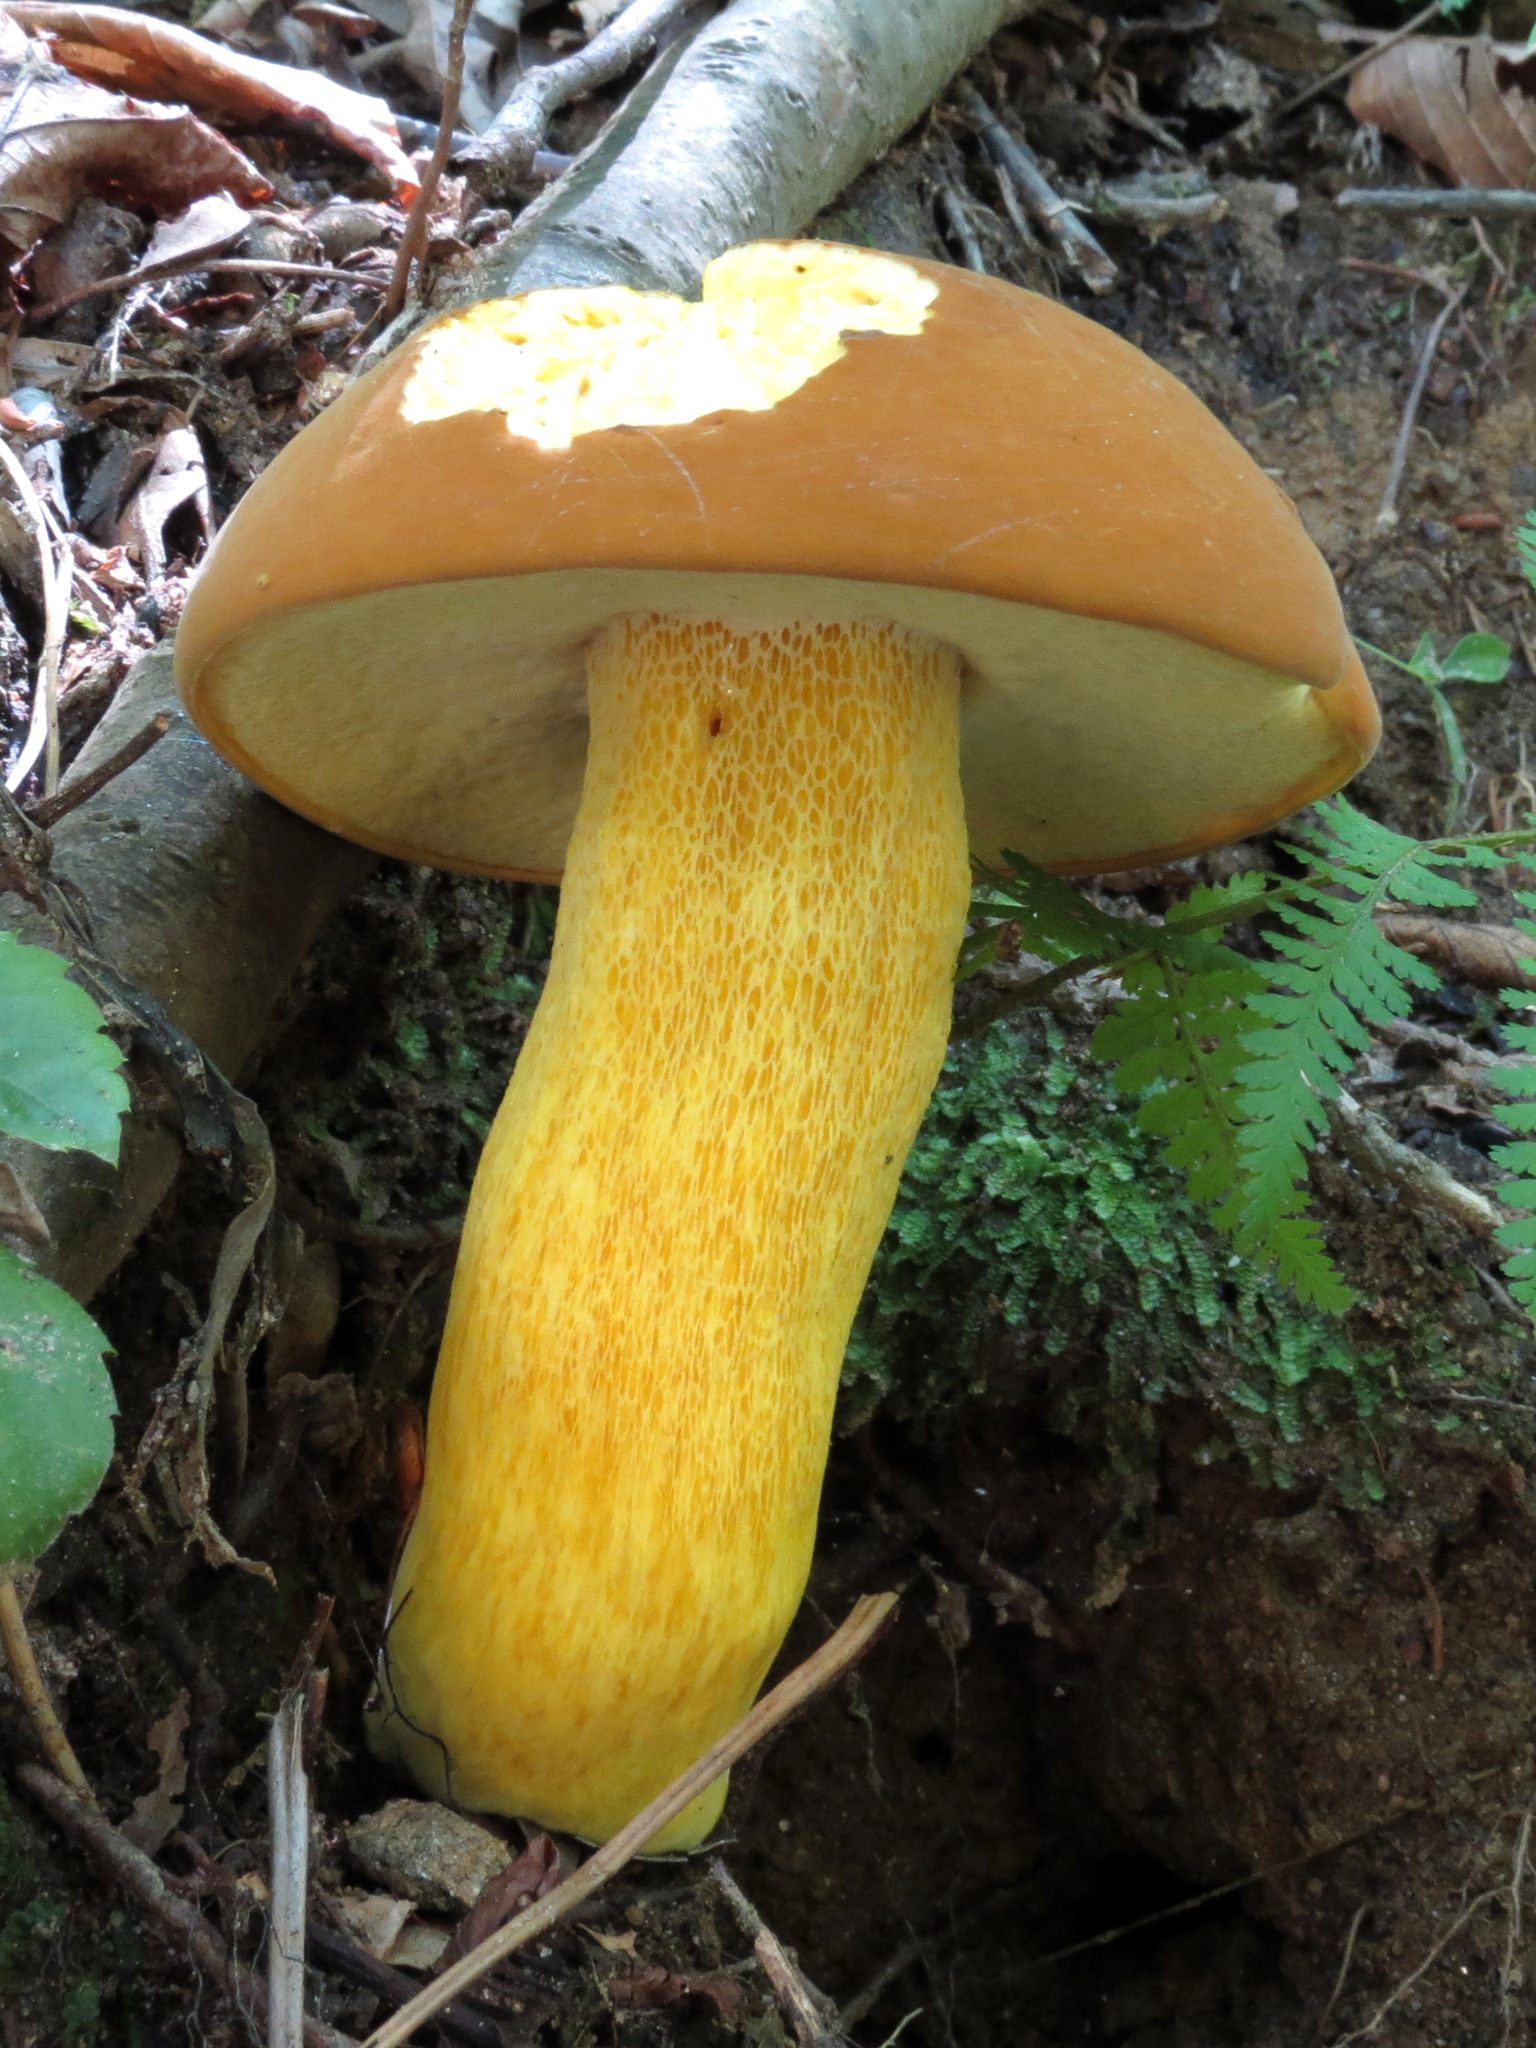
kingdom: Fungi
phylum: Basidiomycota
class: Agaricomycetes
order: Boletales
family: Boletaceae
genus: Boletus
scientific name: Boletus auripes
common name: Butter-foot bolete
